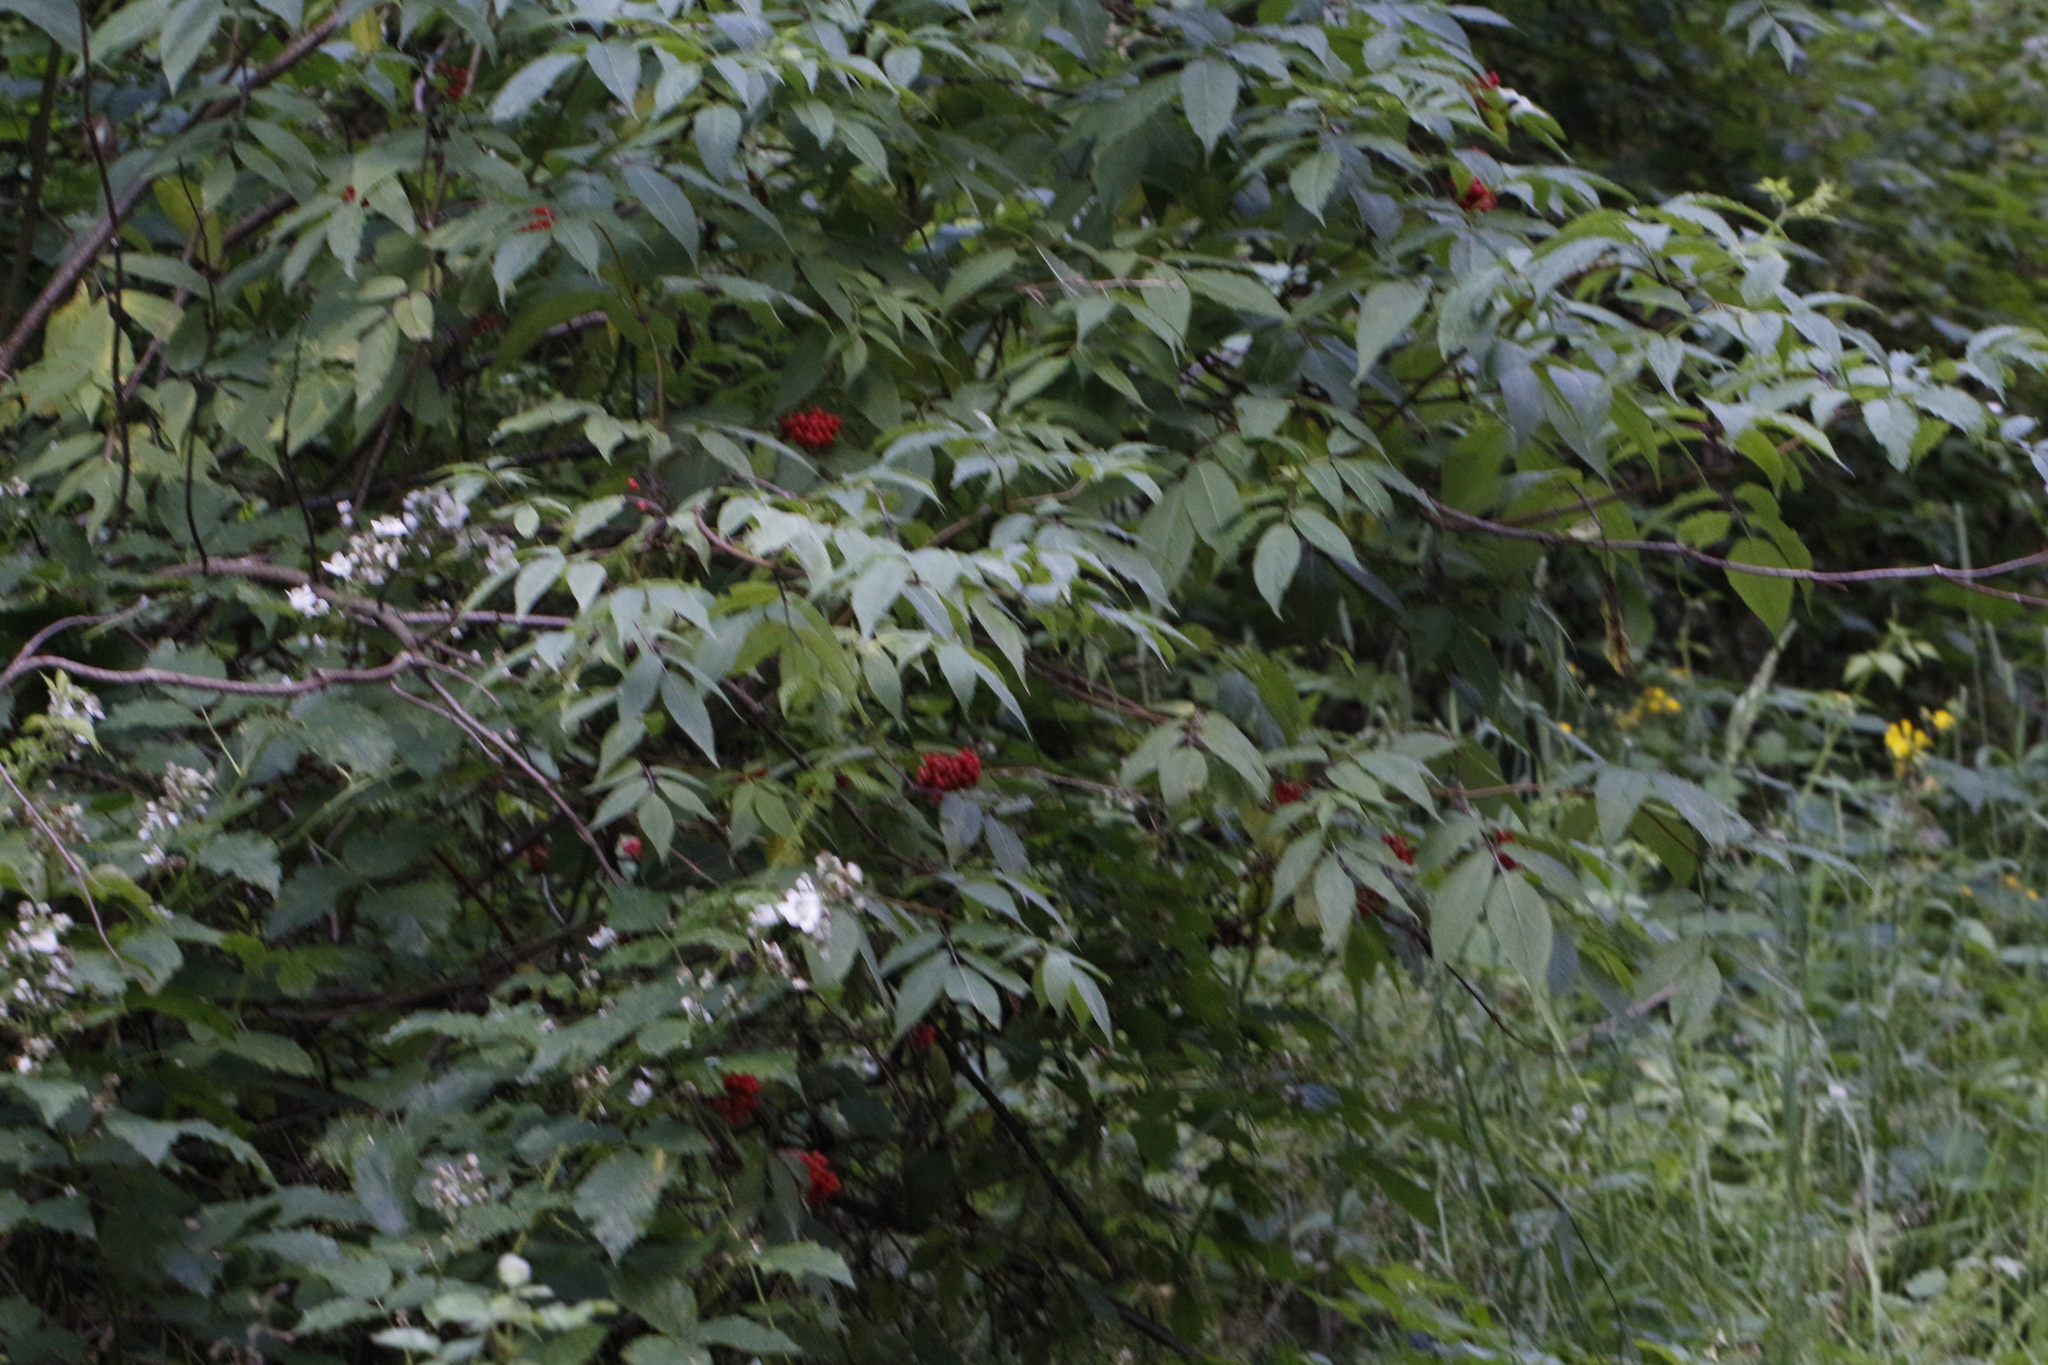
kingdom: Plantae
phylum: Tracheophyta
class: Magnoliopsida
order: Dipsacales
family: Viburnaceae
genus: Sambucus
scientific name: Sambucus racemosa
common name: Red-berried elder
